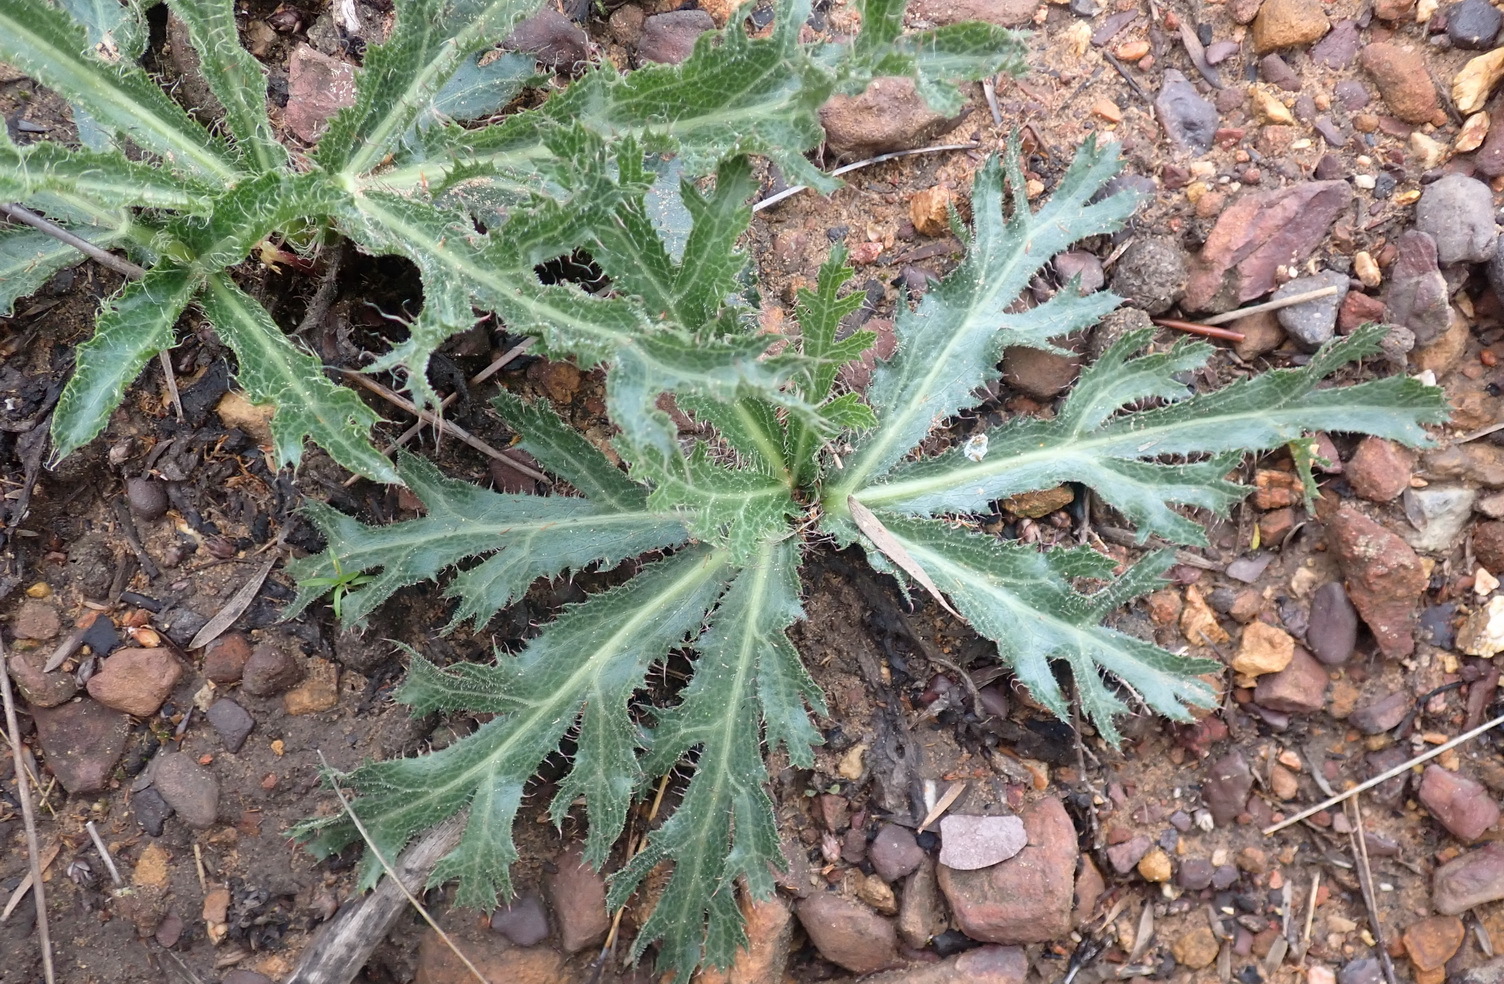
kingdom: Plantae
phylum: Tracheophyta
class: Magnoliopsida
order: Apiales
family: Apiaceae
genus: Lichtensteinia
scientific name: Lichtensteinia lacera
